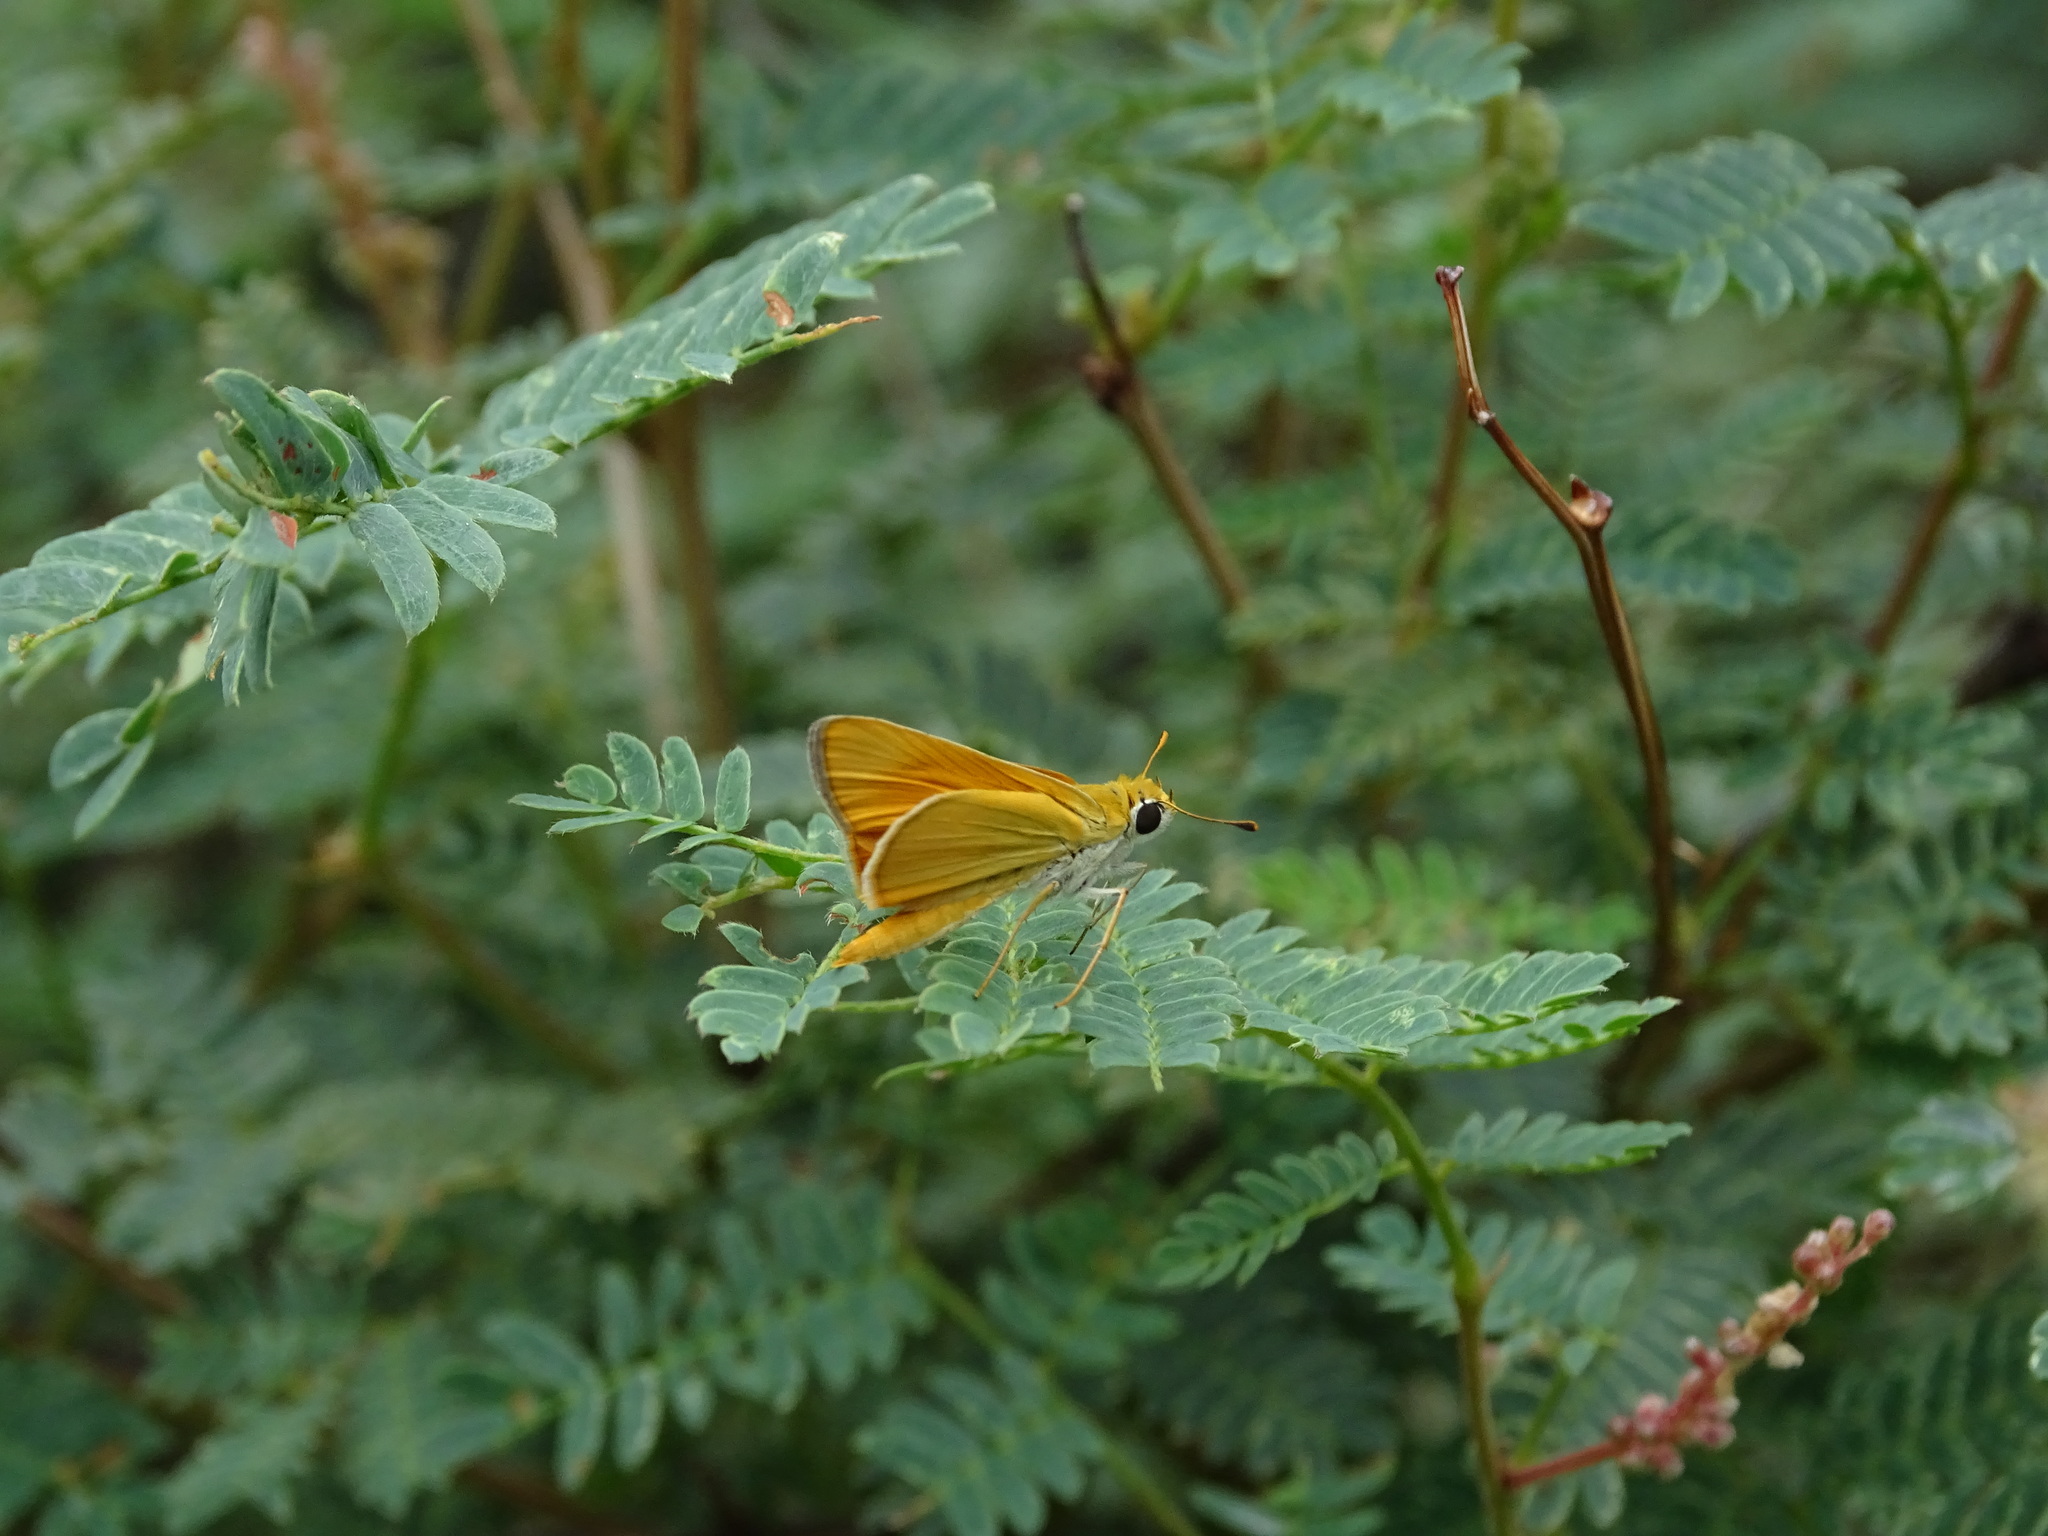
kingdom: Animalia
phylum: Arthropoda
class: Insecta
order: Lepidoptera
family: Hesperiidae
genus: Copaeodes
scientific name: Copaeodes aurantiaca
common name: Orange skipperling
